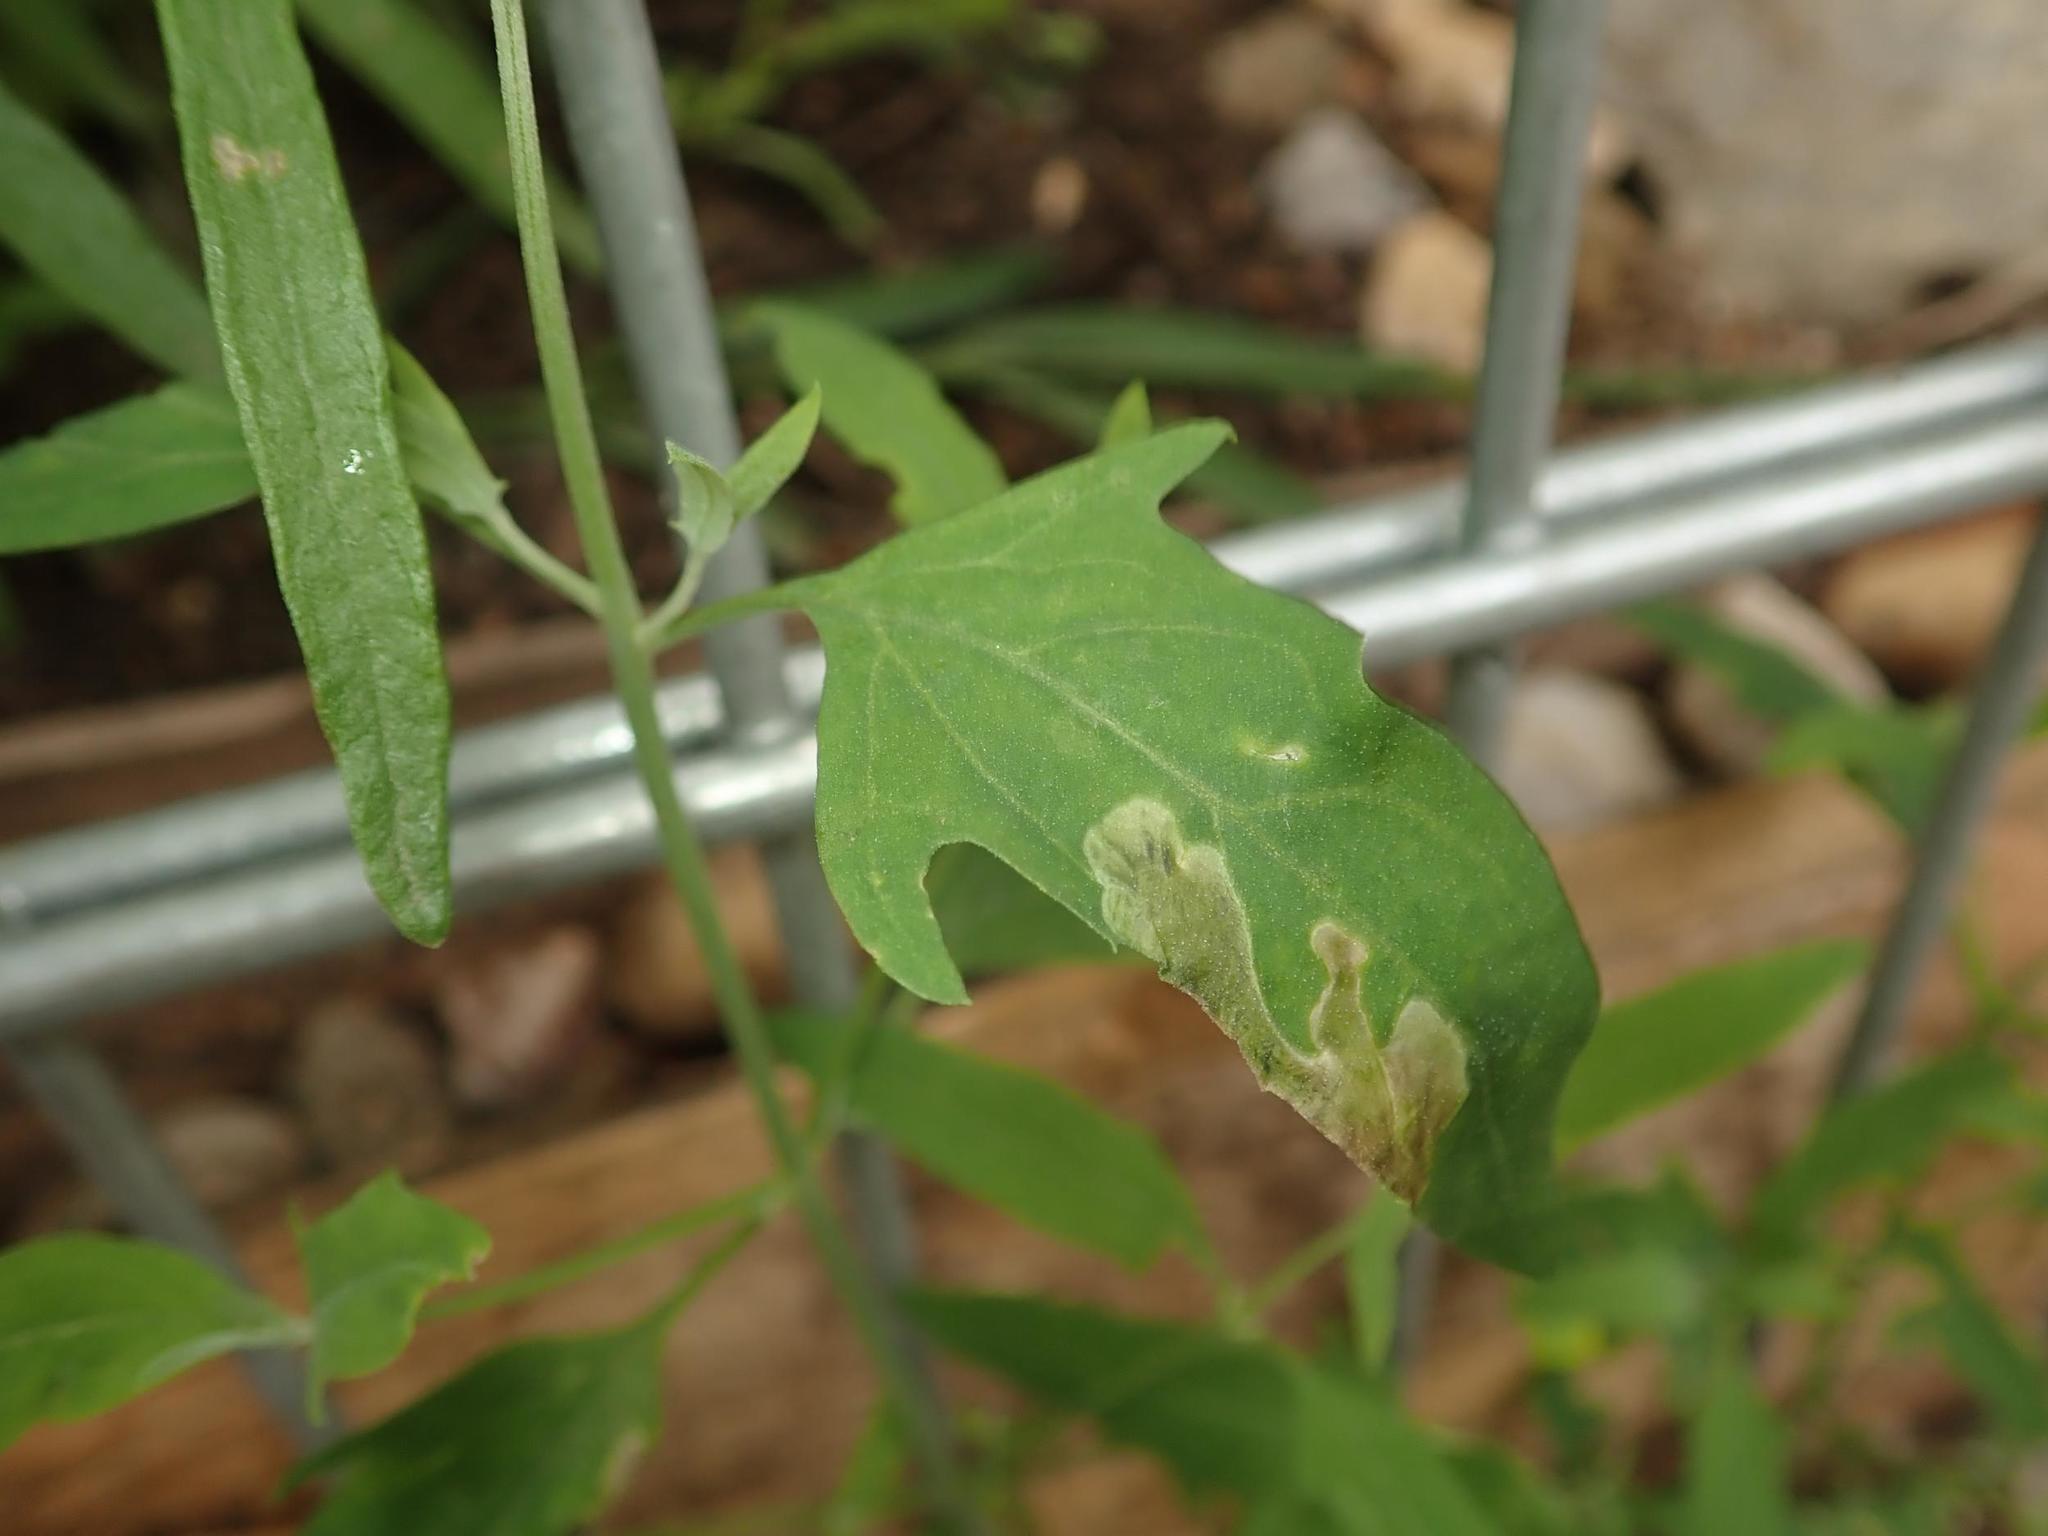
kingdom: Plantae
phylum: Tracheophyta
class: Magnoliopsida
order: Caryophyllales
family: Amaranthaceae
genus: Chenopodium
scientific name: Chenopodium album
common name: Fat-hen
